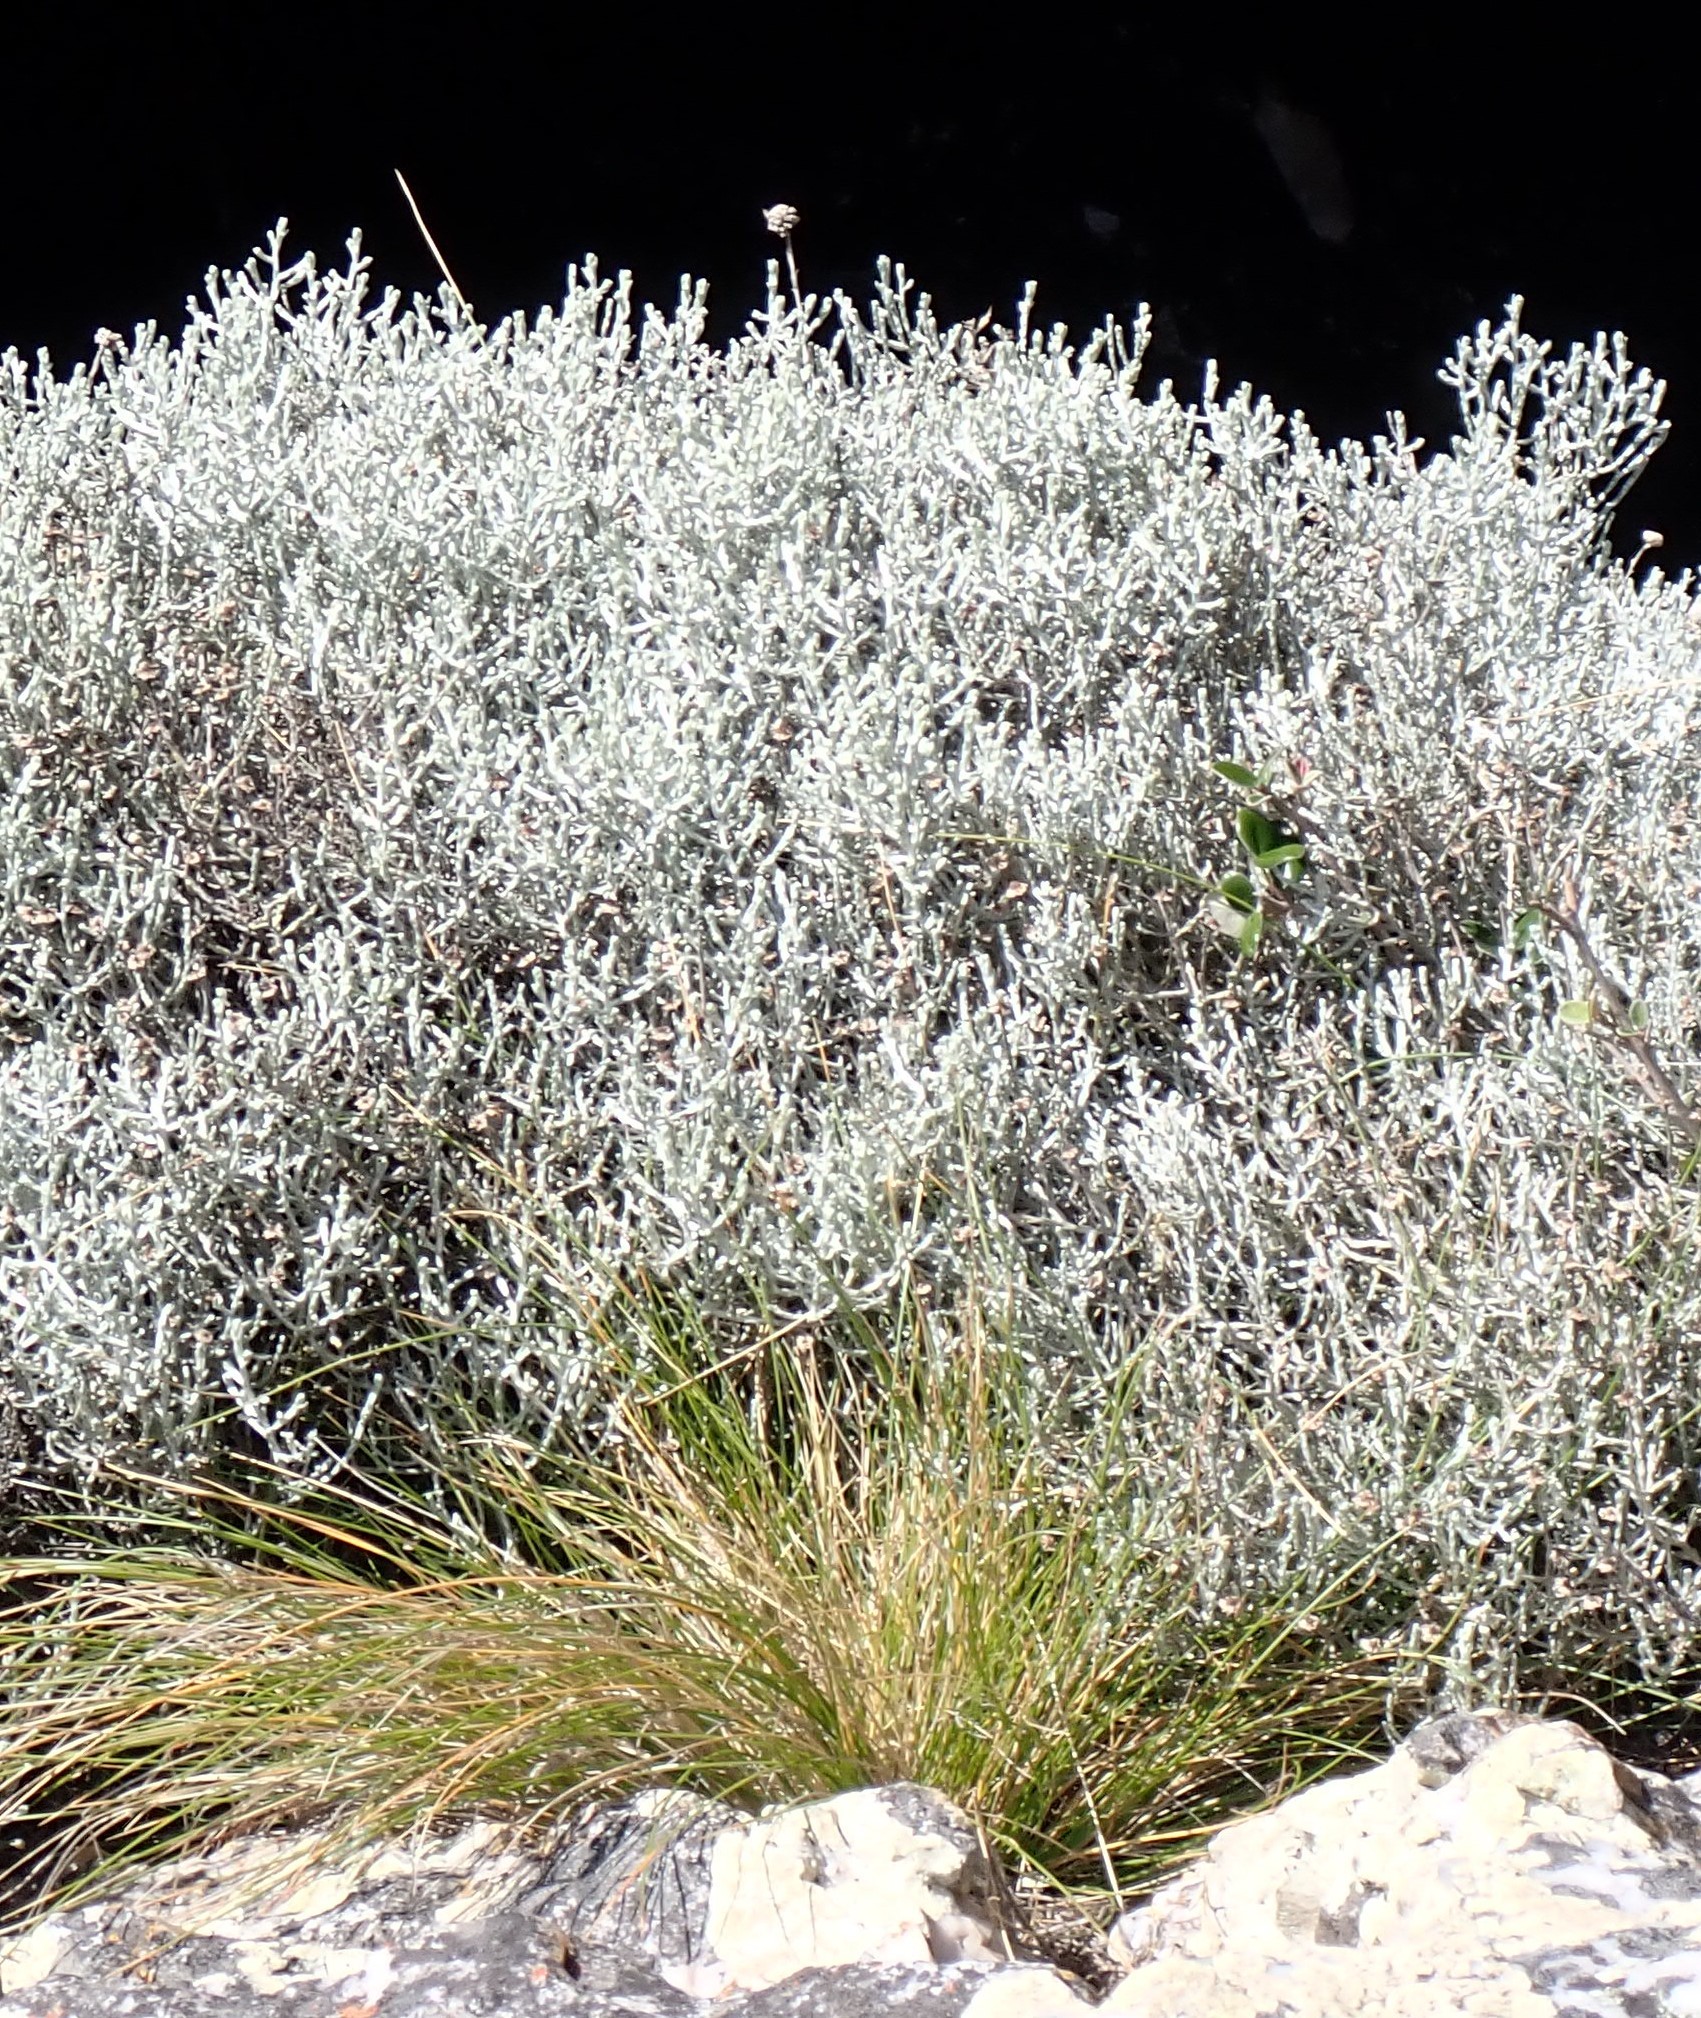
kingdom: Plantae
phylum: Tracheophyta
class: Magnoliopsida
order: Asterales
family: Asteraceae
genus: Calocephalus
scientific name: Calocephalus brownii
